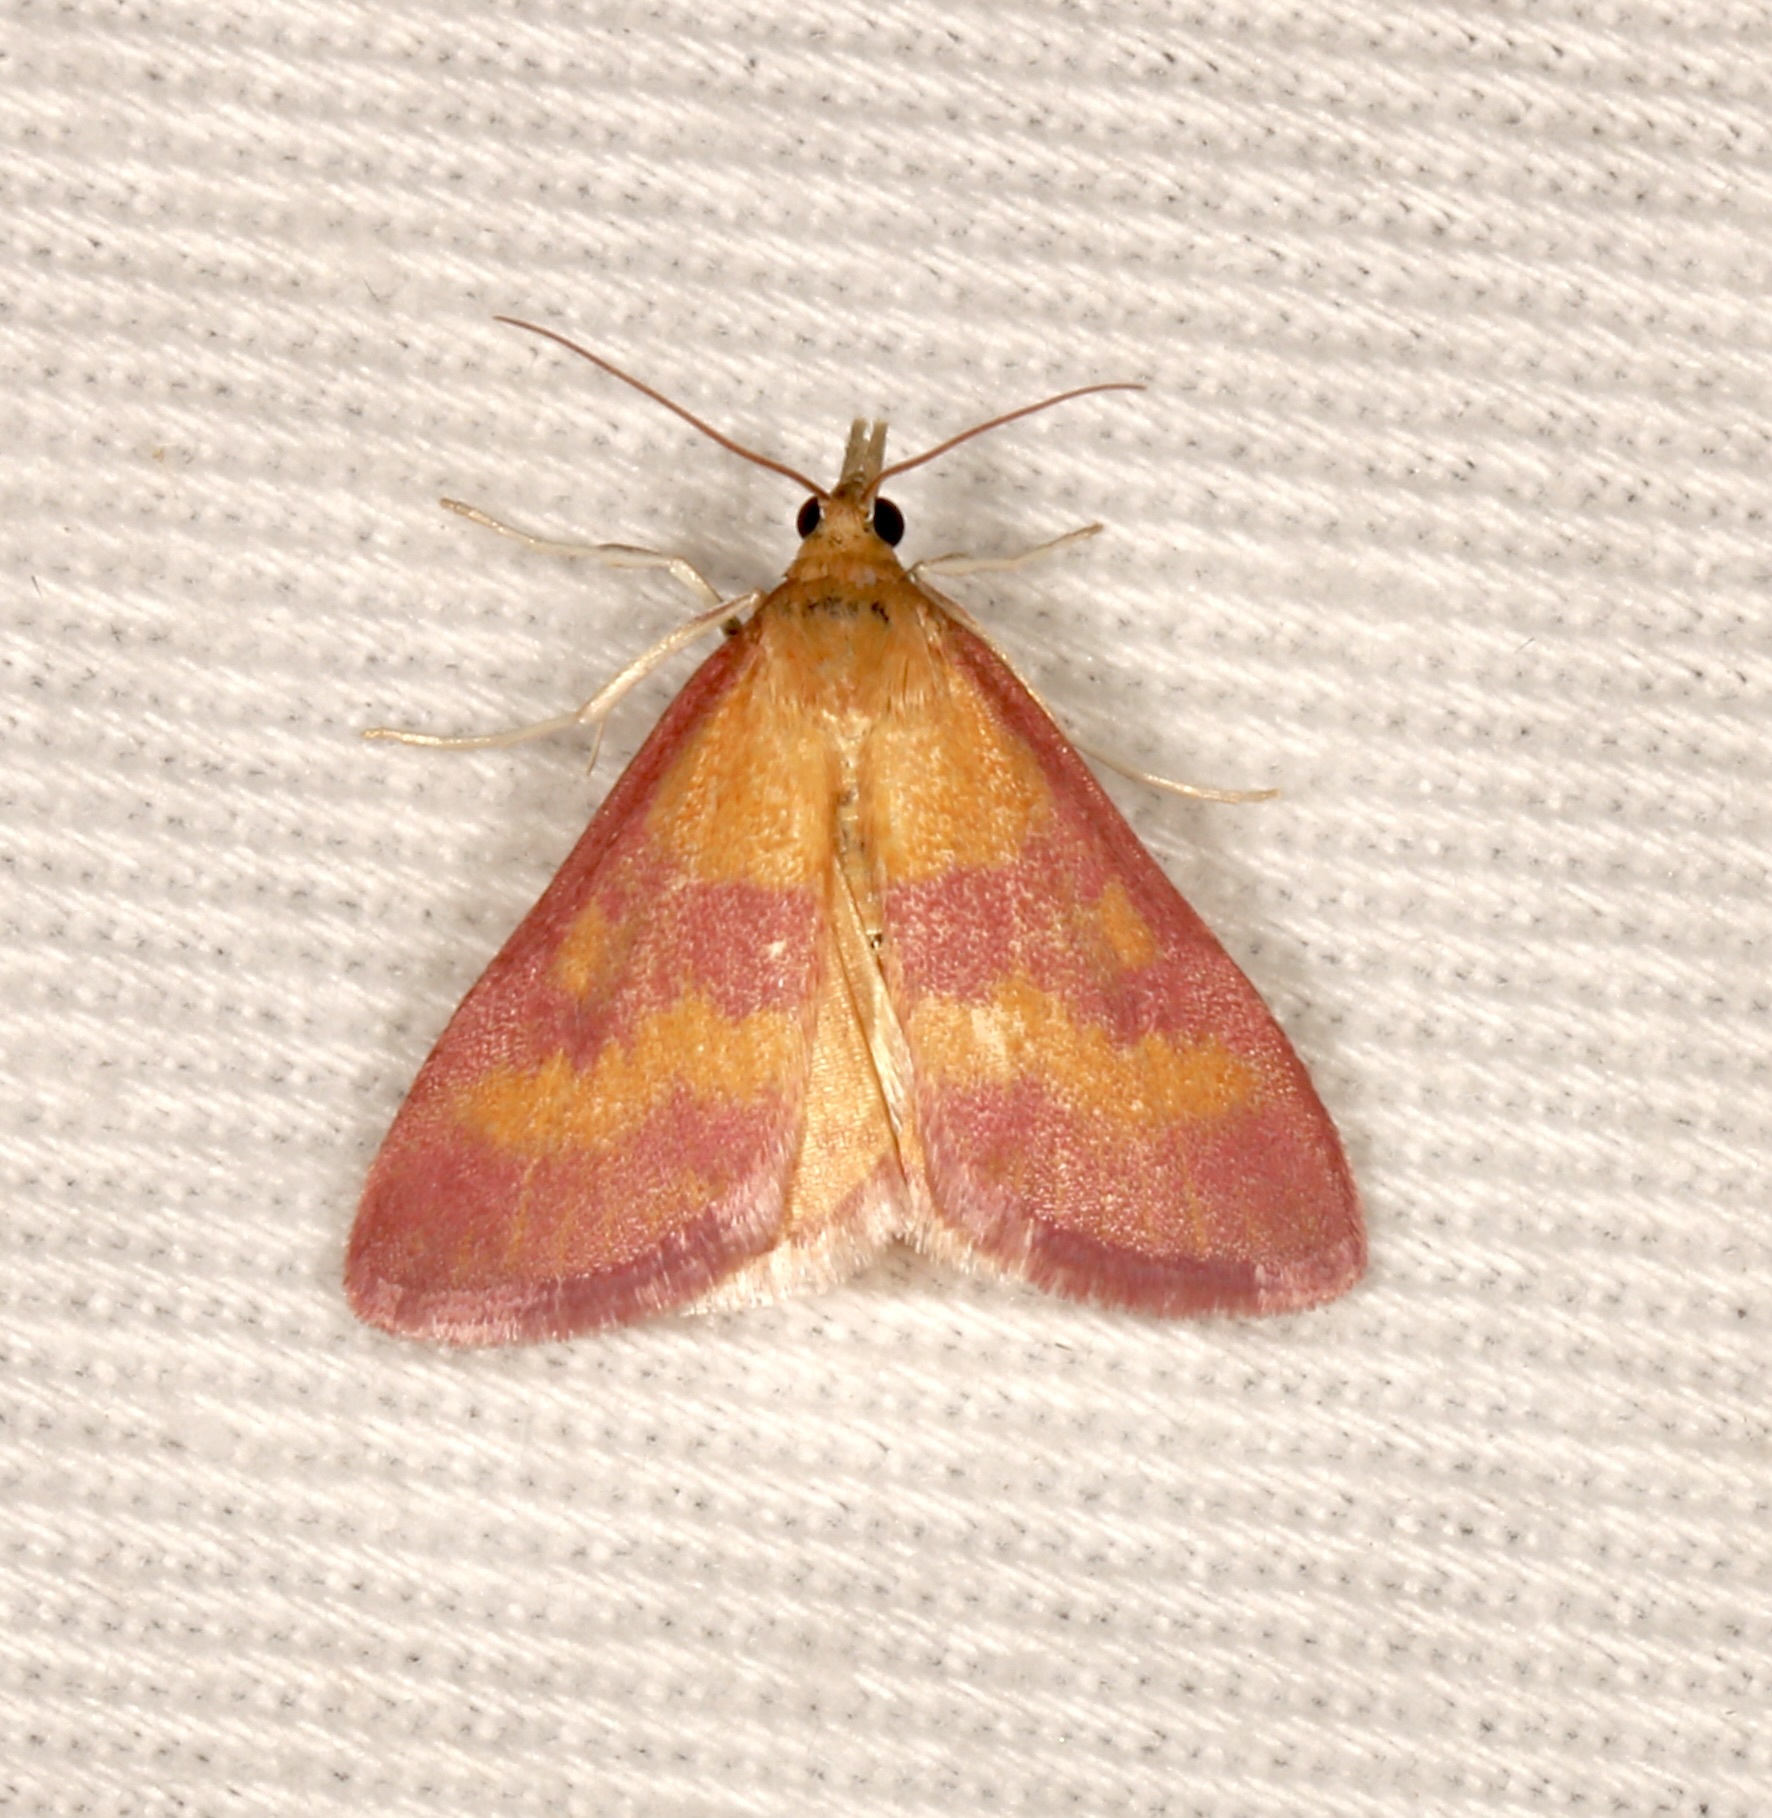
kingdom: Animalia
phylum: Arthropoda
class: Insecta
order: Lepidoptera
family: Crambidae
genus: Pyrausta
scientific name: Pyrausta laticlavia
